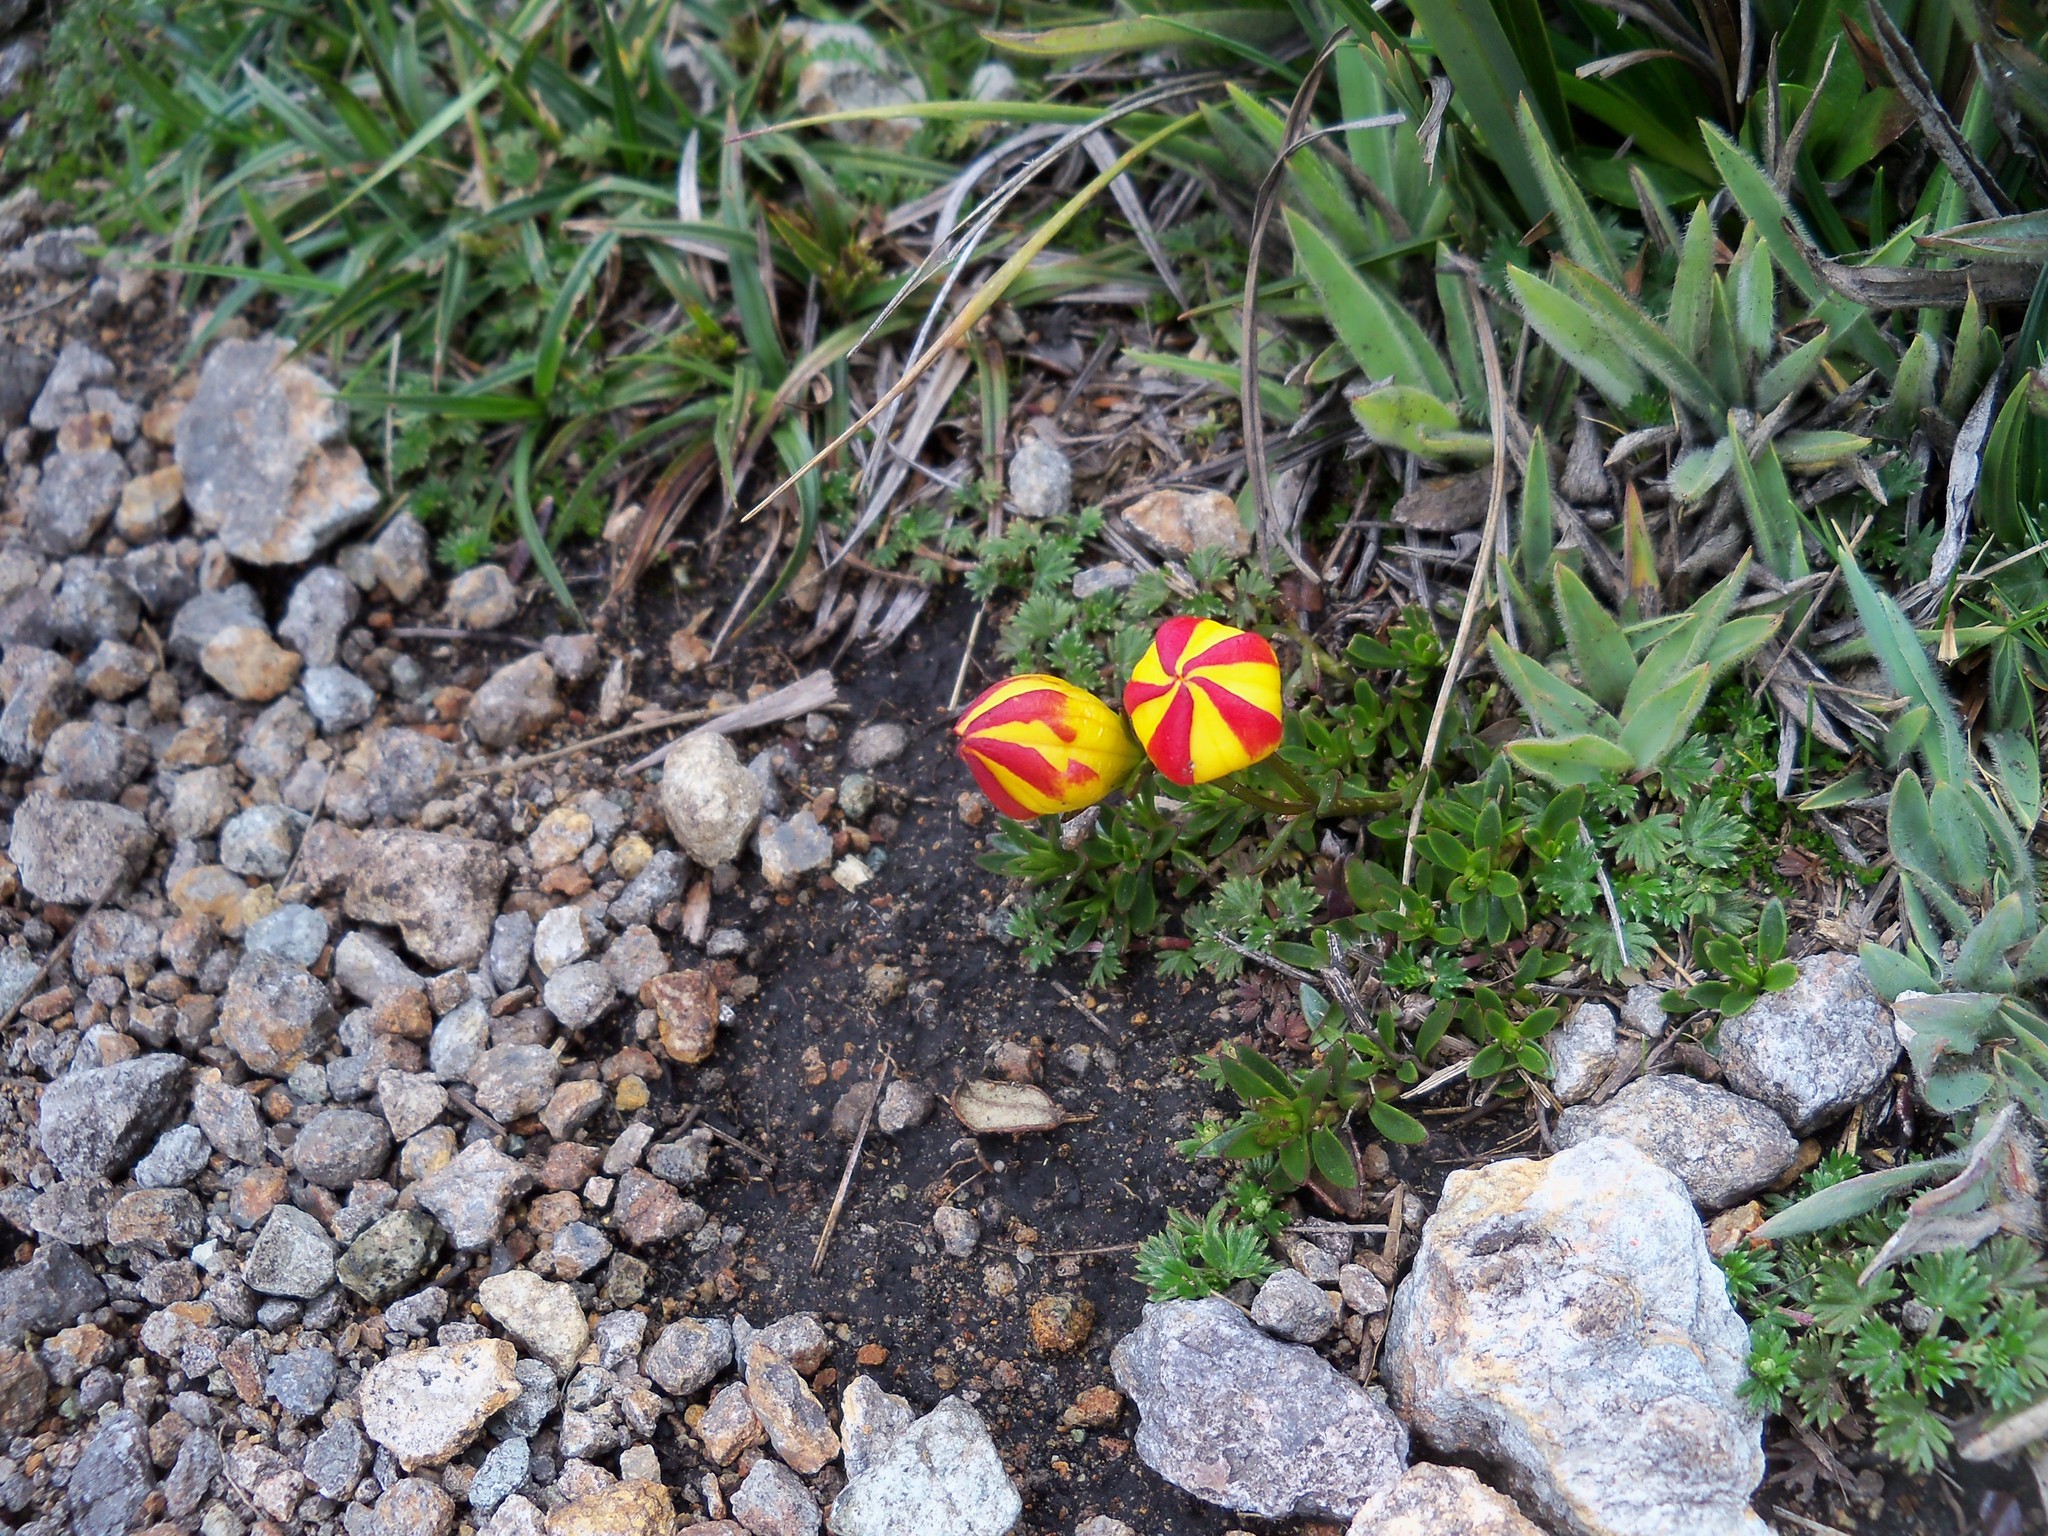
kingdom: Plantae
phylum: Tracheophyta
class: Magnoliopsida
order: Gentianales
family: Gentianaceae
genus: Gentianella
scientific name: Gentianella hirculus
